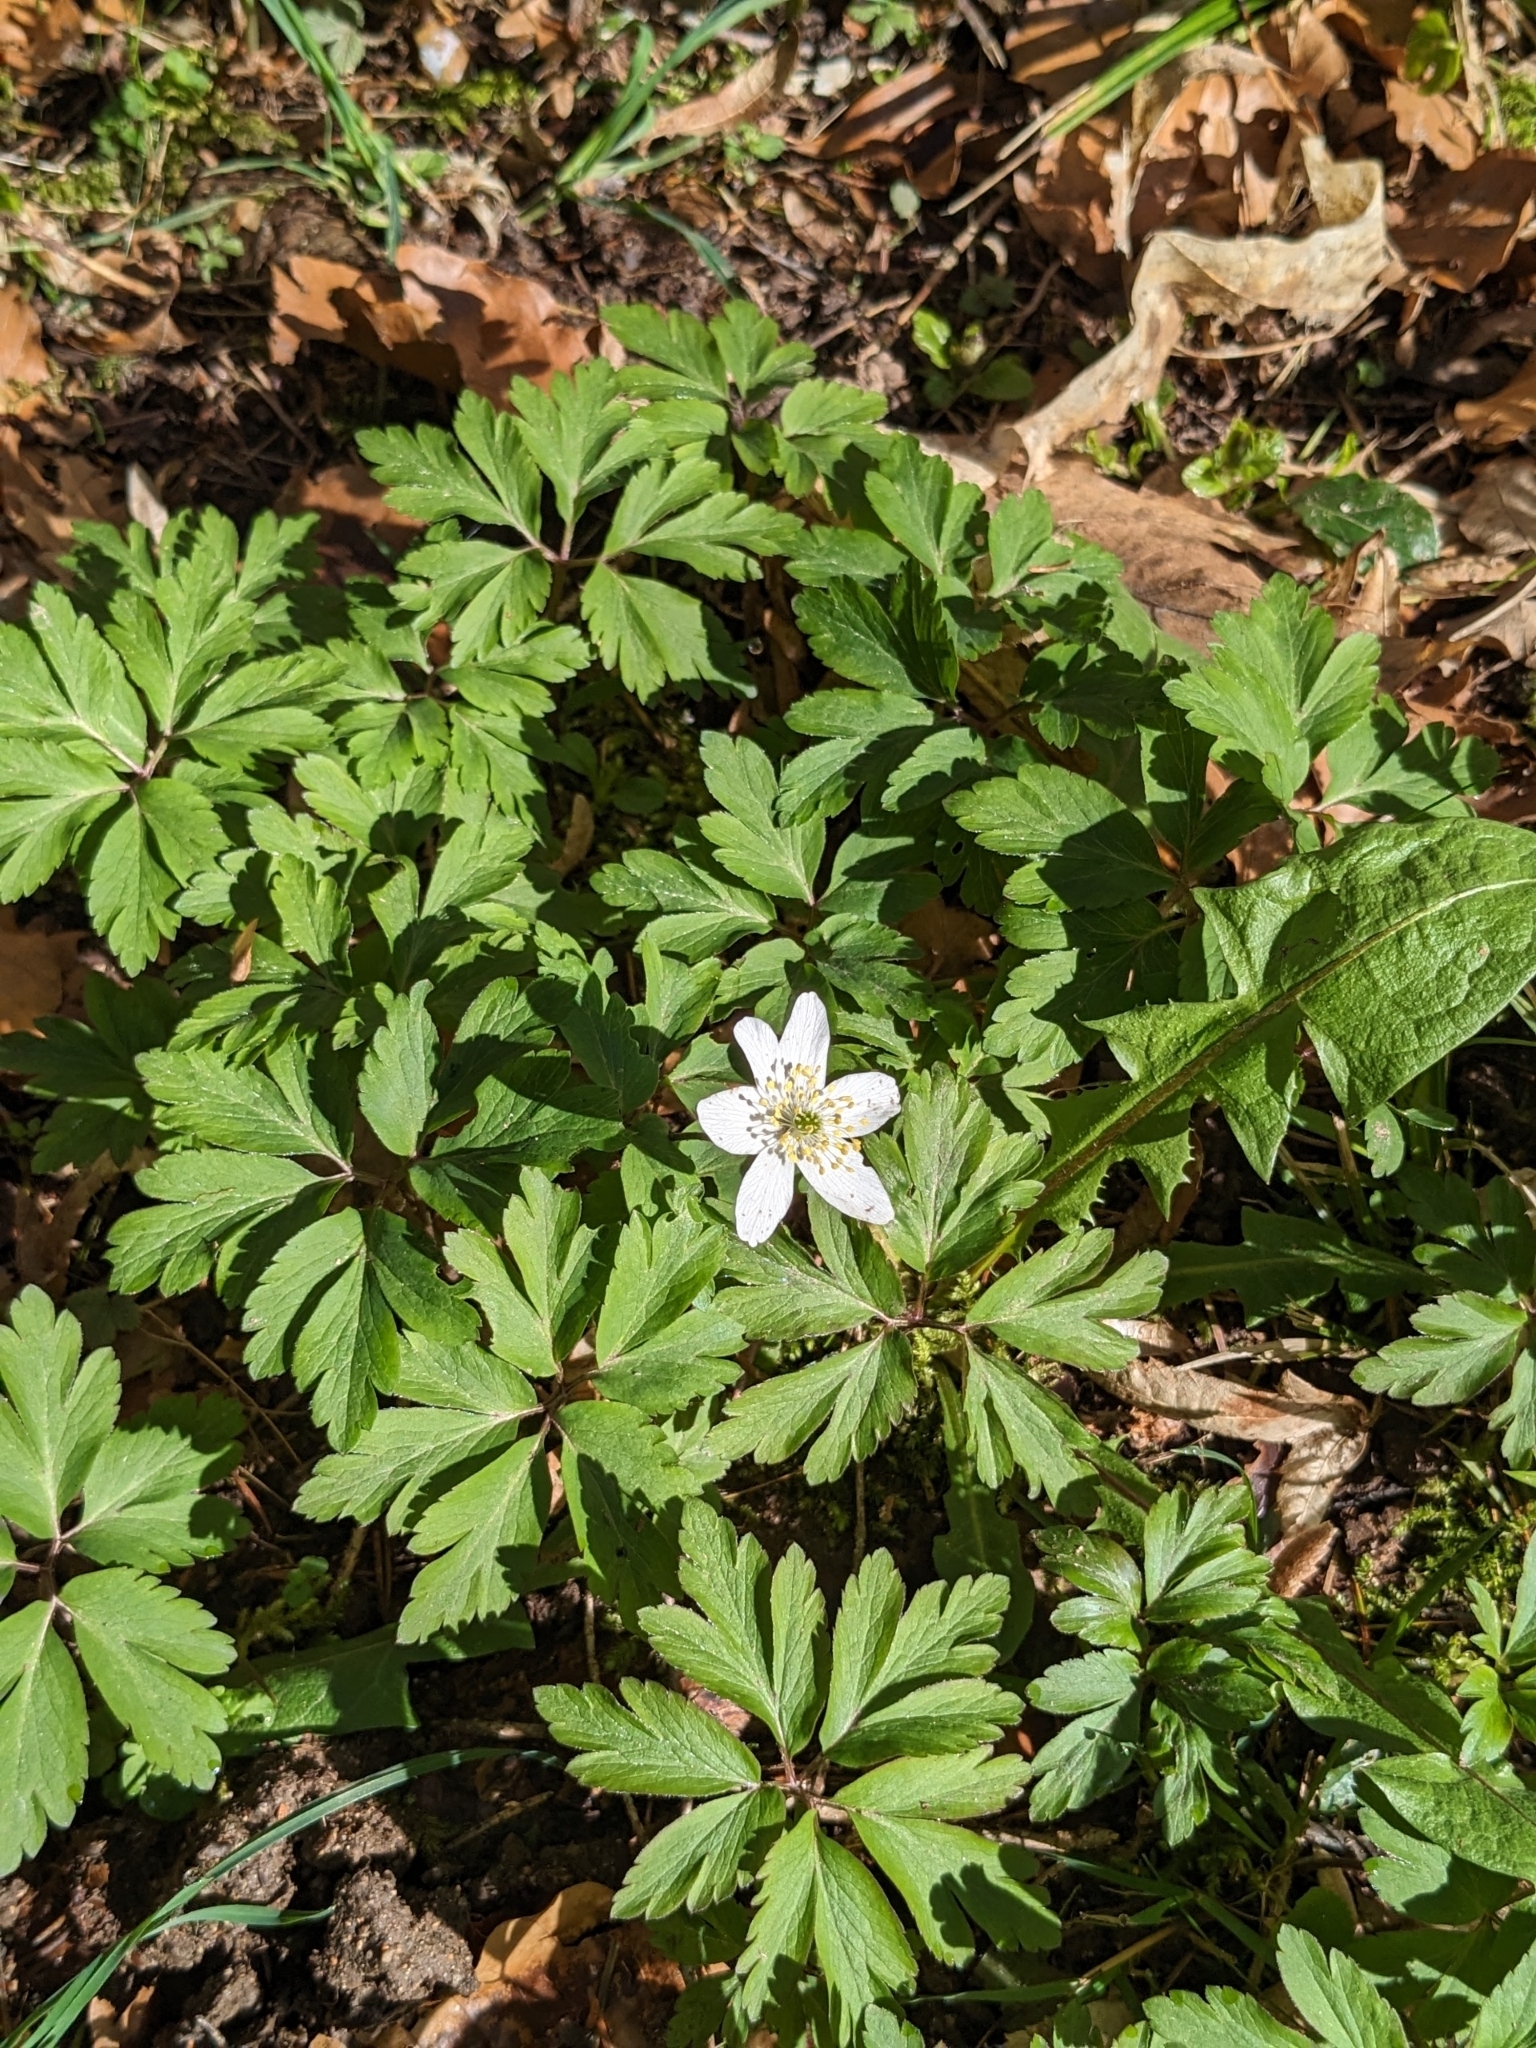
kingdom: Plantae
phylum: Tracheophyta
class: Magnoliopsida
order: Ranunculales
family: Ranunculaceae
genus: Anemone
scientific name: Anemone nemorosa
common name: Wood anemone
